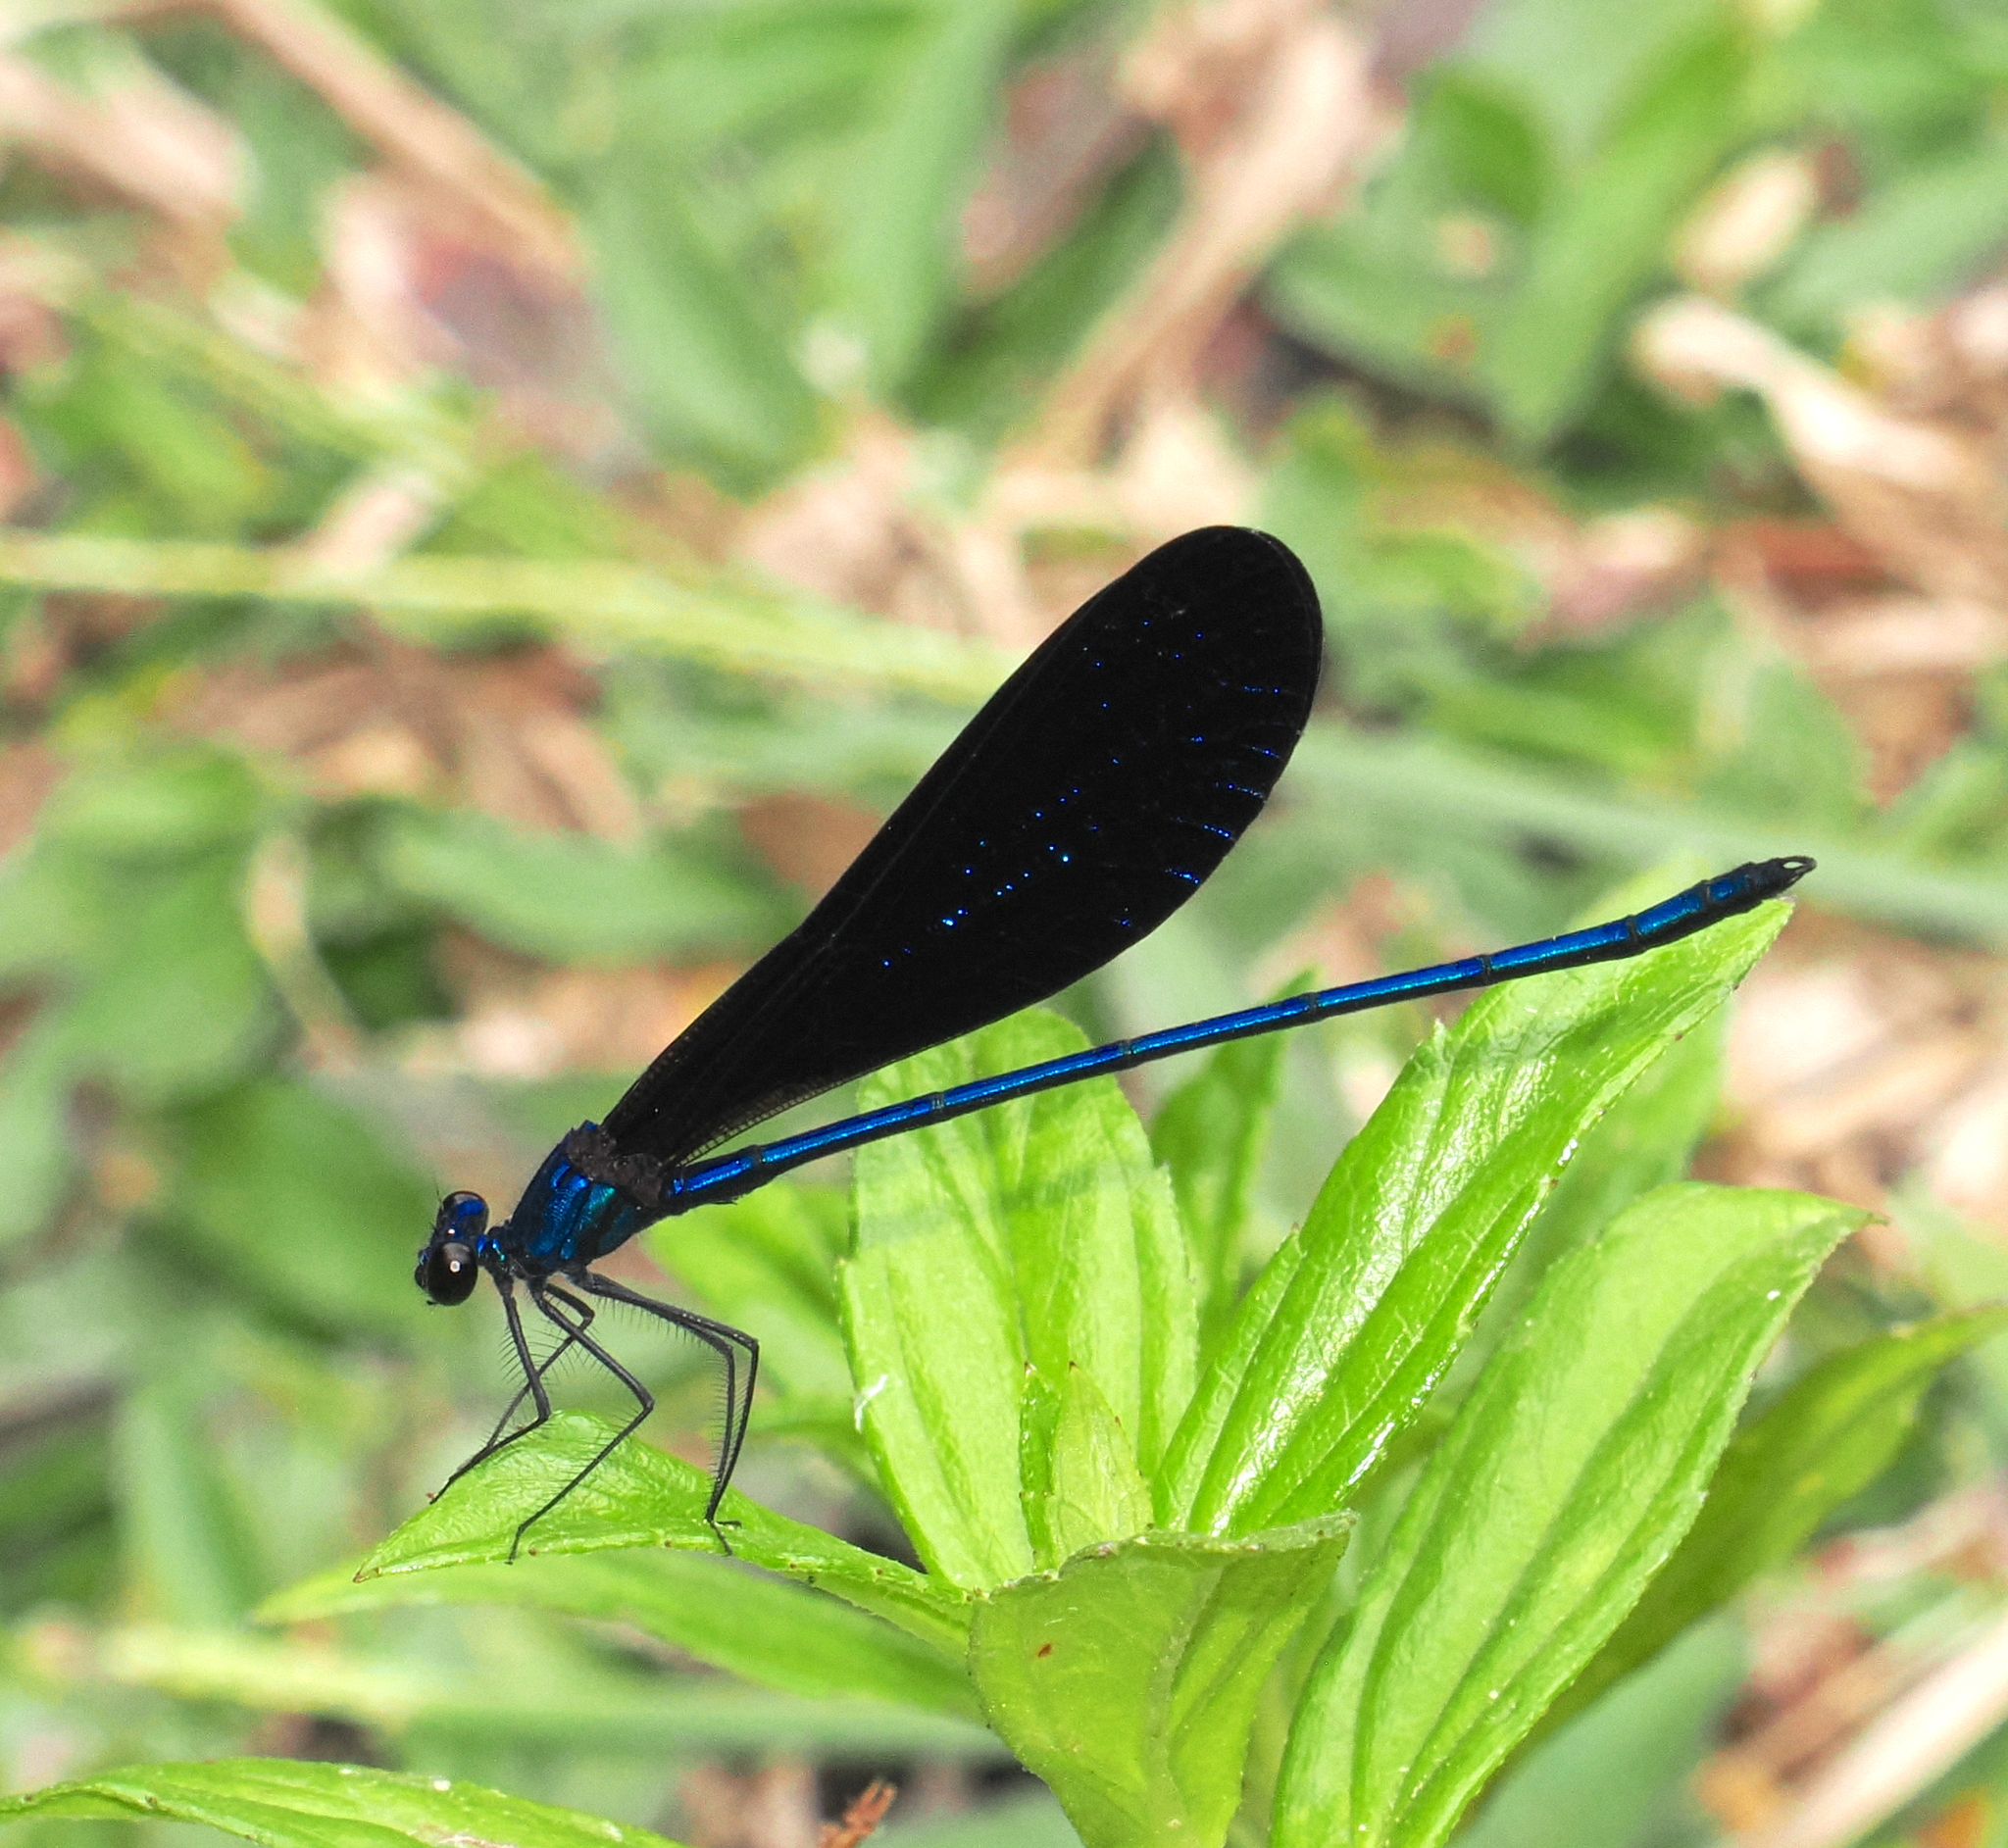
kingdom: Animalia
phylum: Arthropoda
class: Insecta
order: Odonata
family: Calopterygidae
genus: Vestalis
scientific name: Vestalis luctuosa
